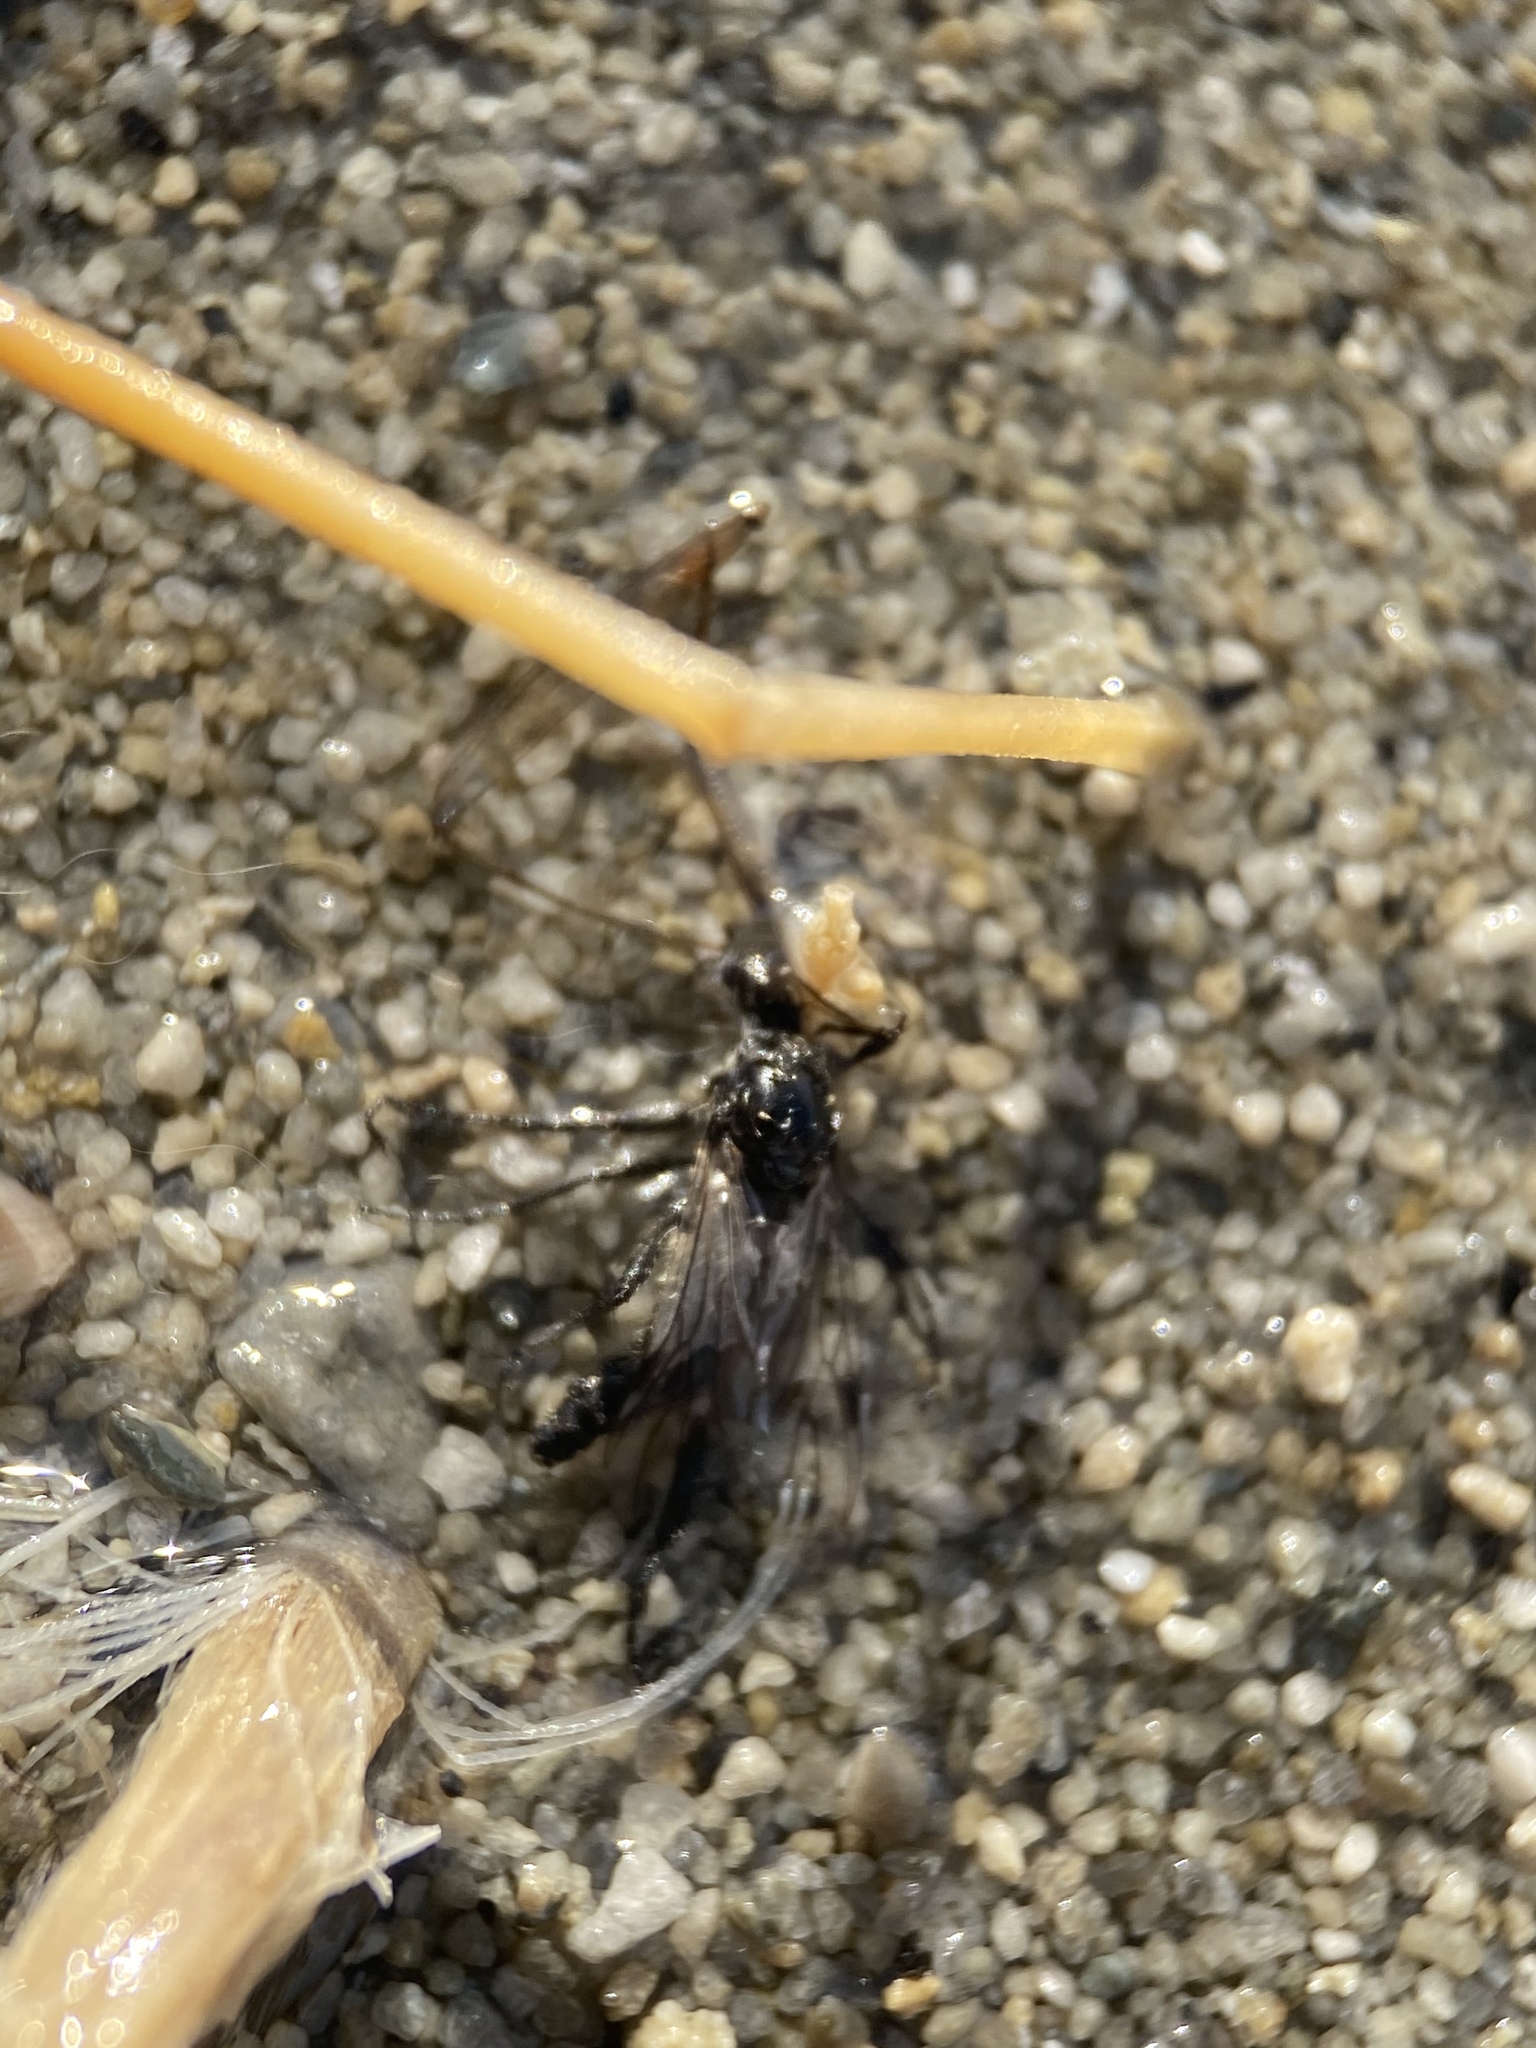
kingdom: Animalia
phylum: Arthropoda
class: Insecta
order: Diptera
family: Bibionidae
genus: Bibio
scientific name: Bibio albipennis
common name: White-winged march fly
